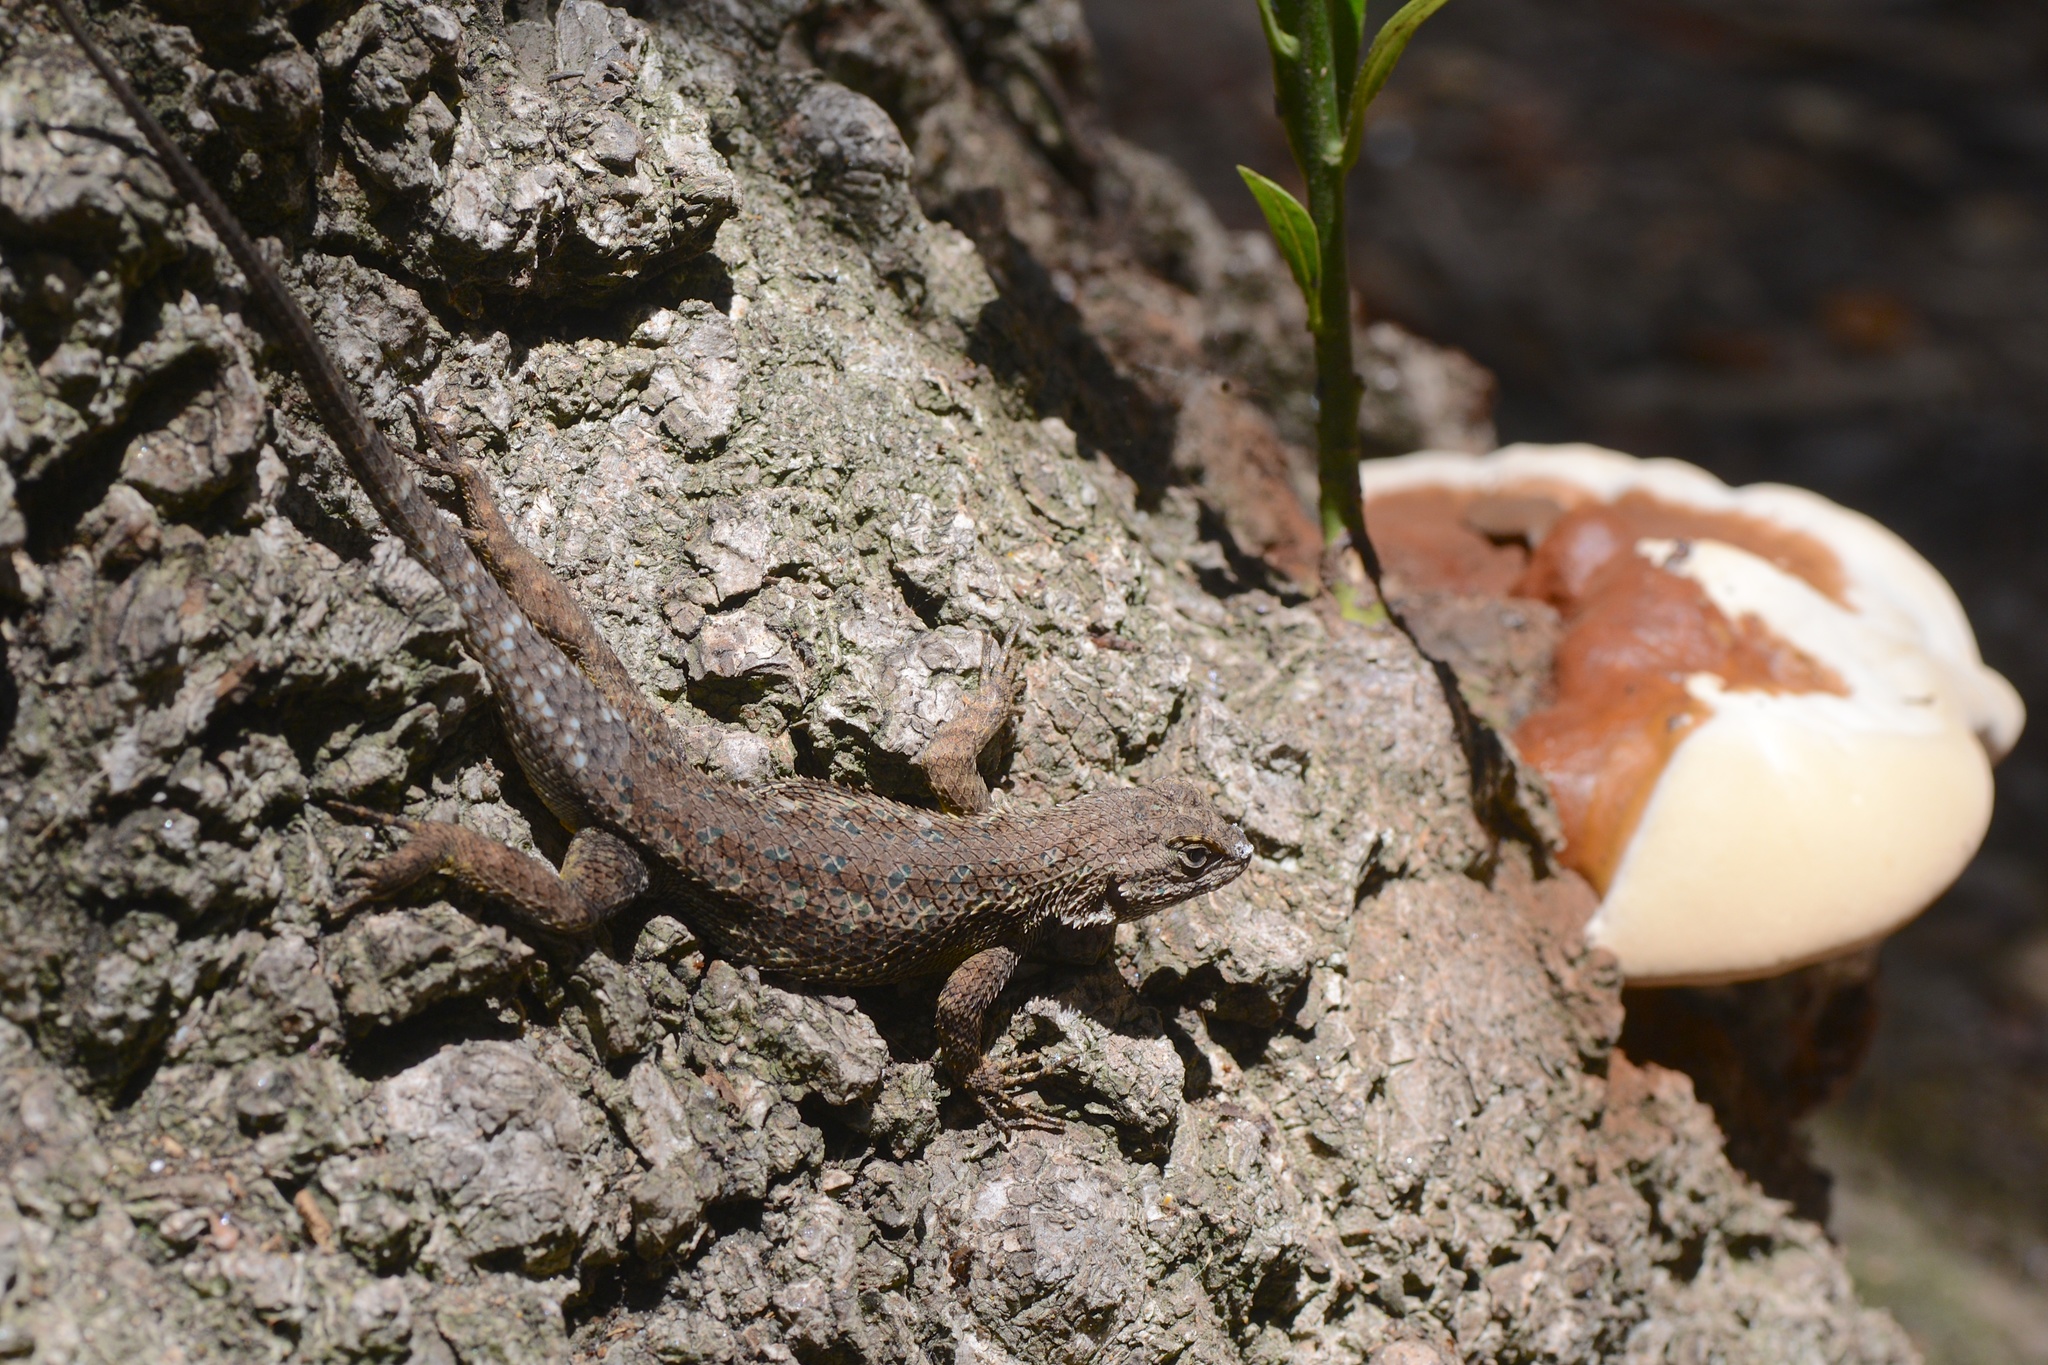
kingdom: Animalia
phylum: Chordata
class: Squamata
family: Phrynosomatidae
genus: Sceloporus
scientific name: Sceloporus occidentalis
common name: Western fence lizard
